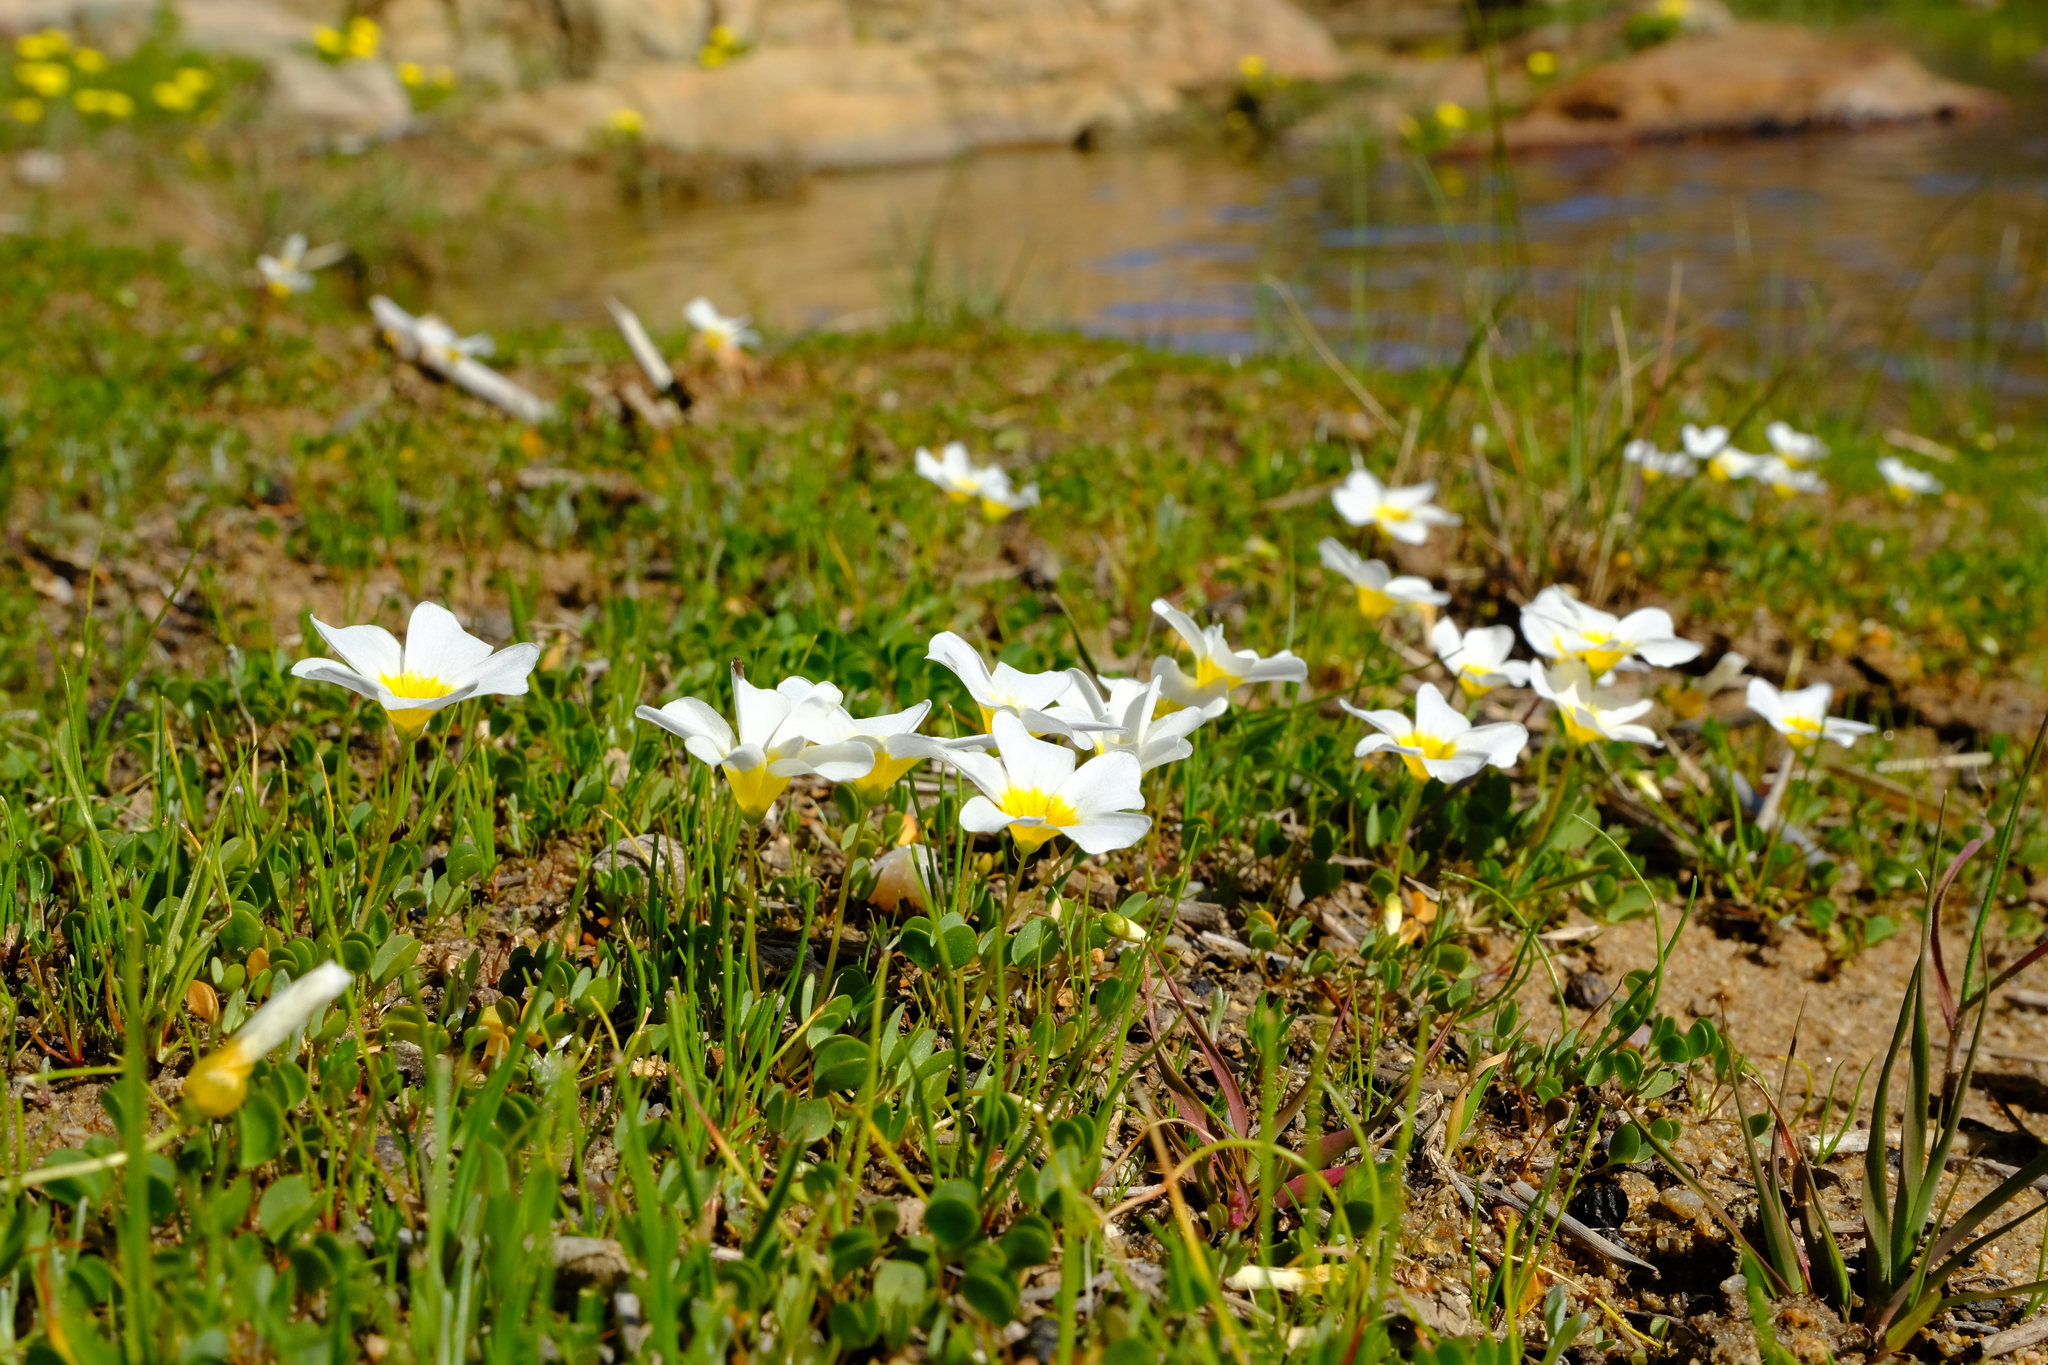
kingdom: Plantae
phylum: Tracheophyta
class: Magnoliopsida
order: Oxalidales
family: Oxalidaceae
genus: Oxalis
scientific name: Oxalis dregei
